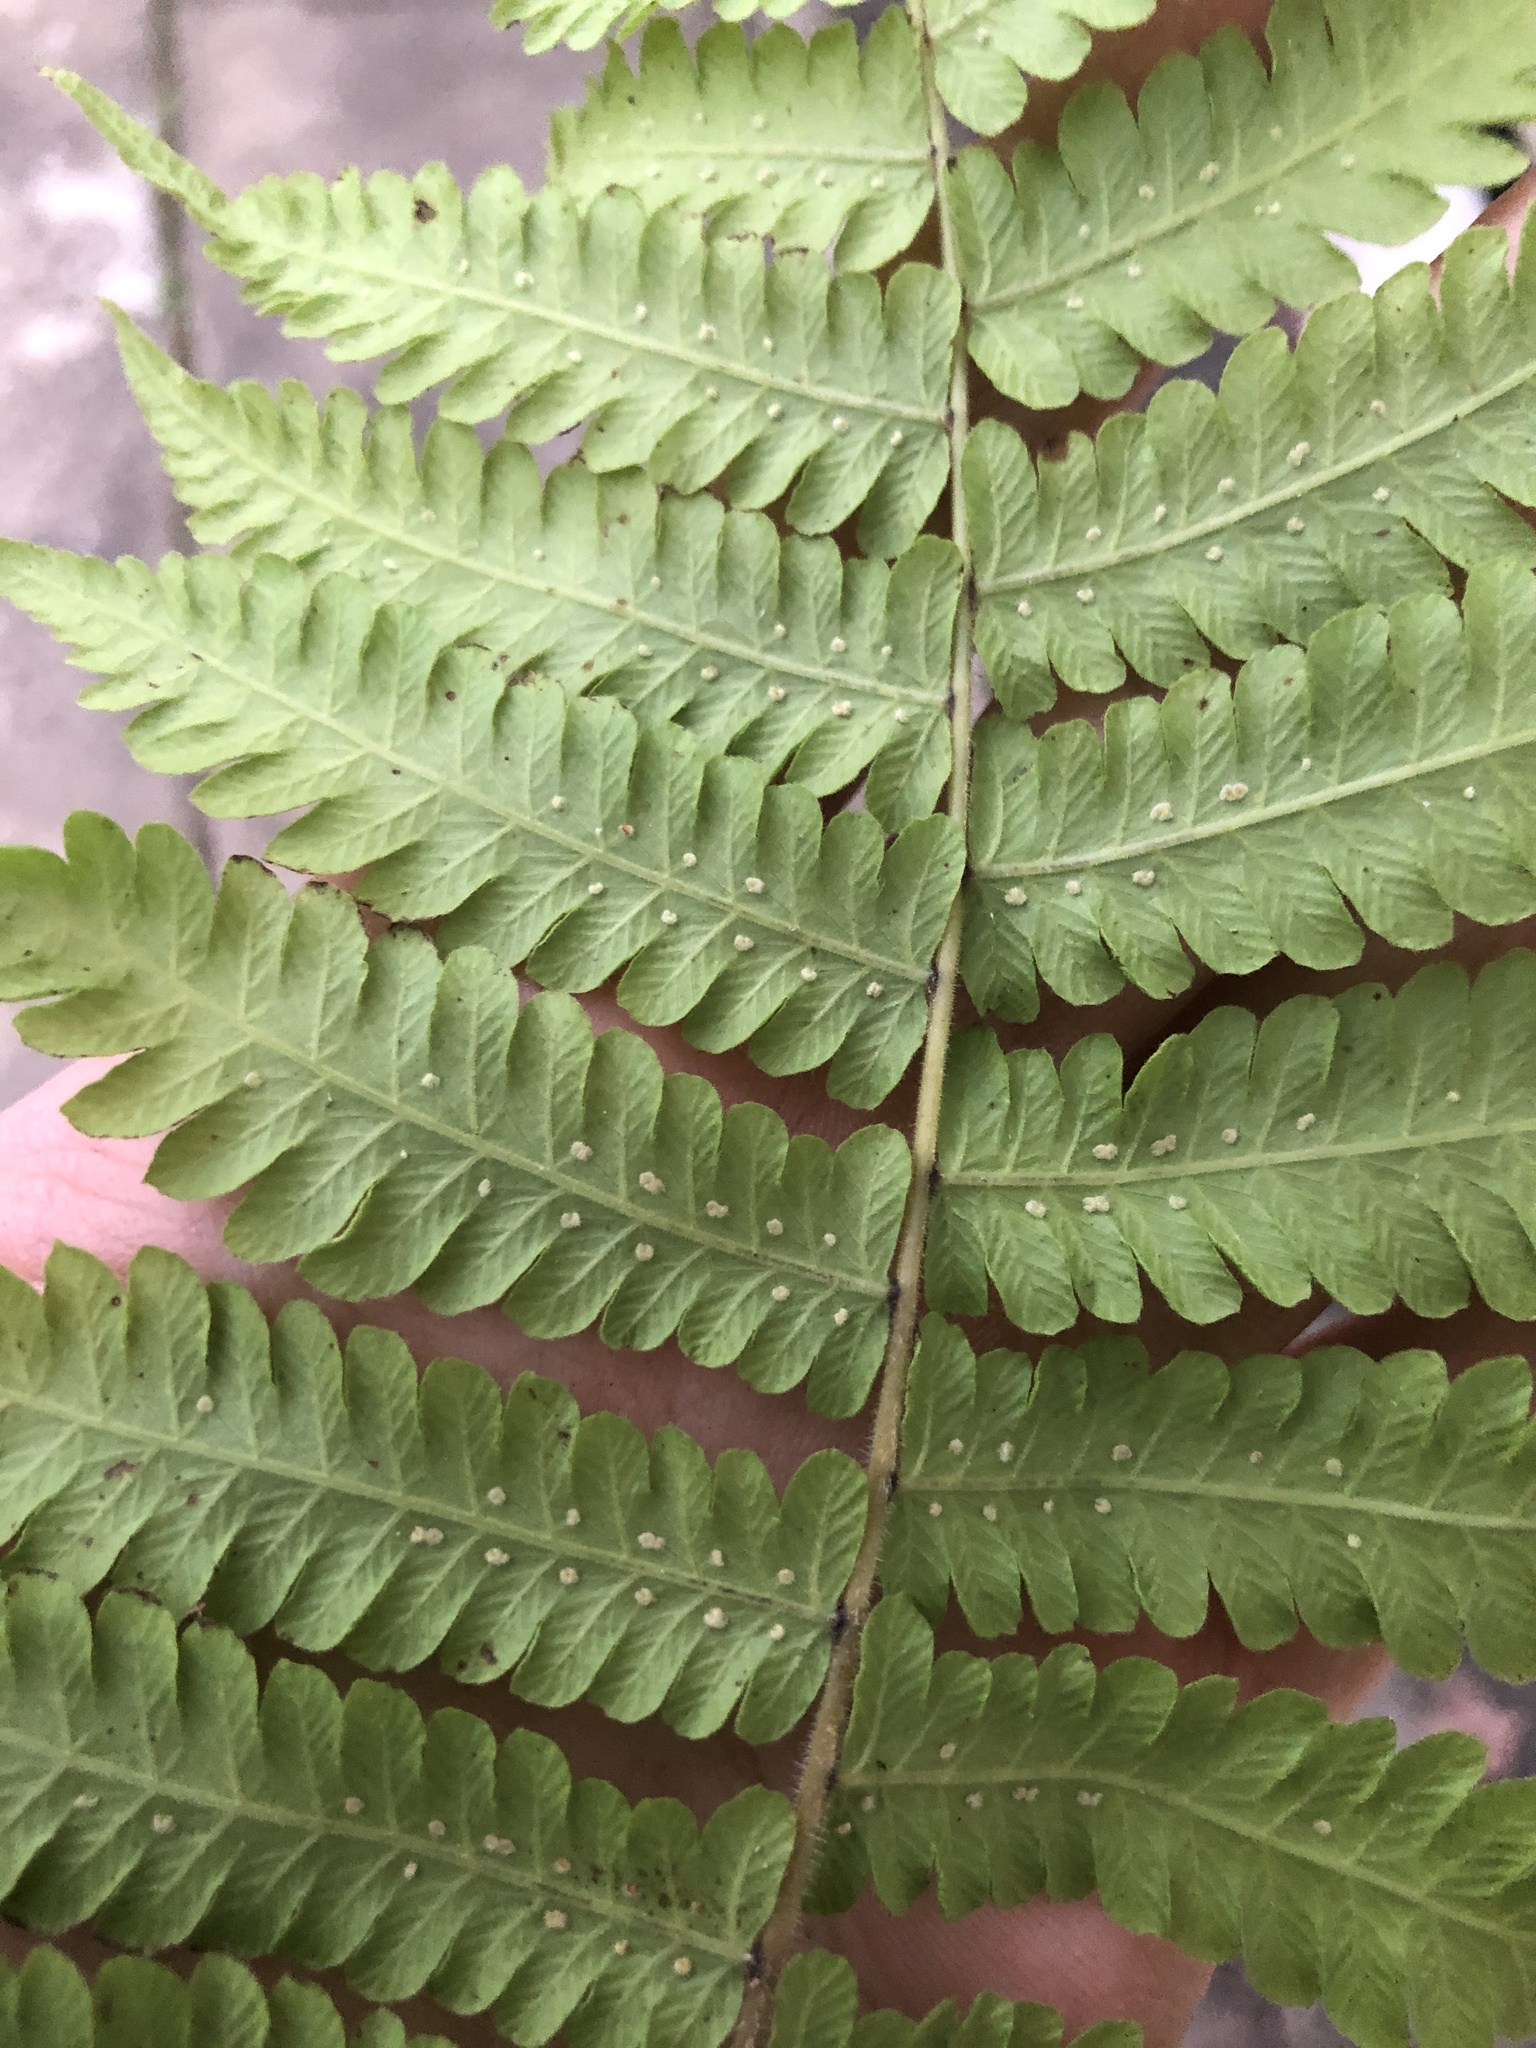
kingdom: Plantae
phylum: Tracheophyta
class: Polypodiopsida
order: Polypodiales
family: Thelypteridaceae
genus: Christella
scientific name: Christella dentata
